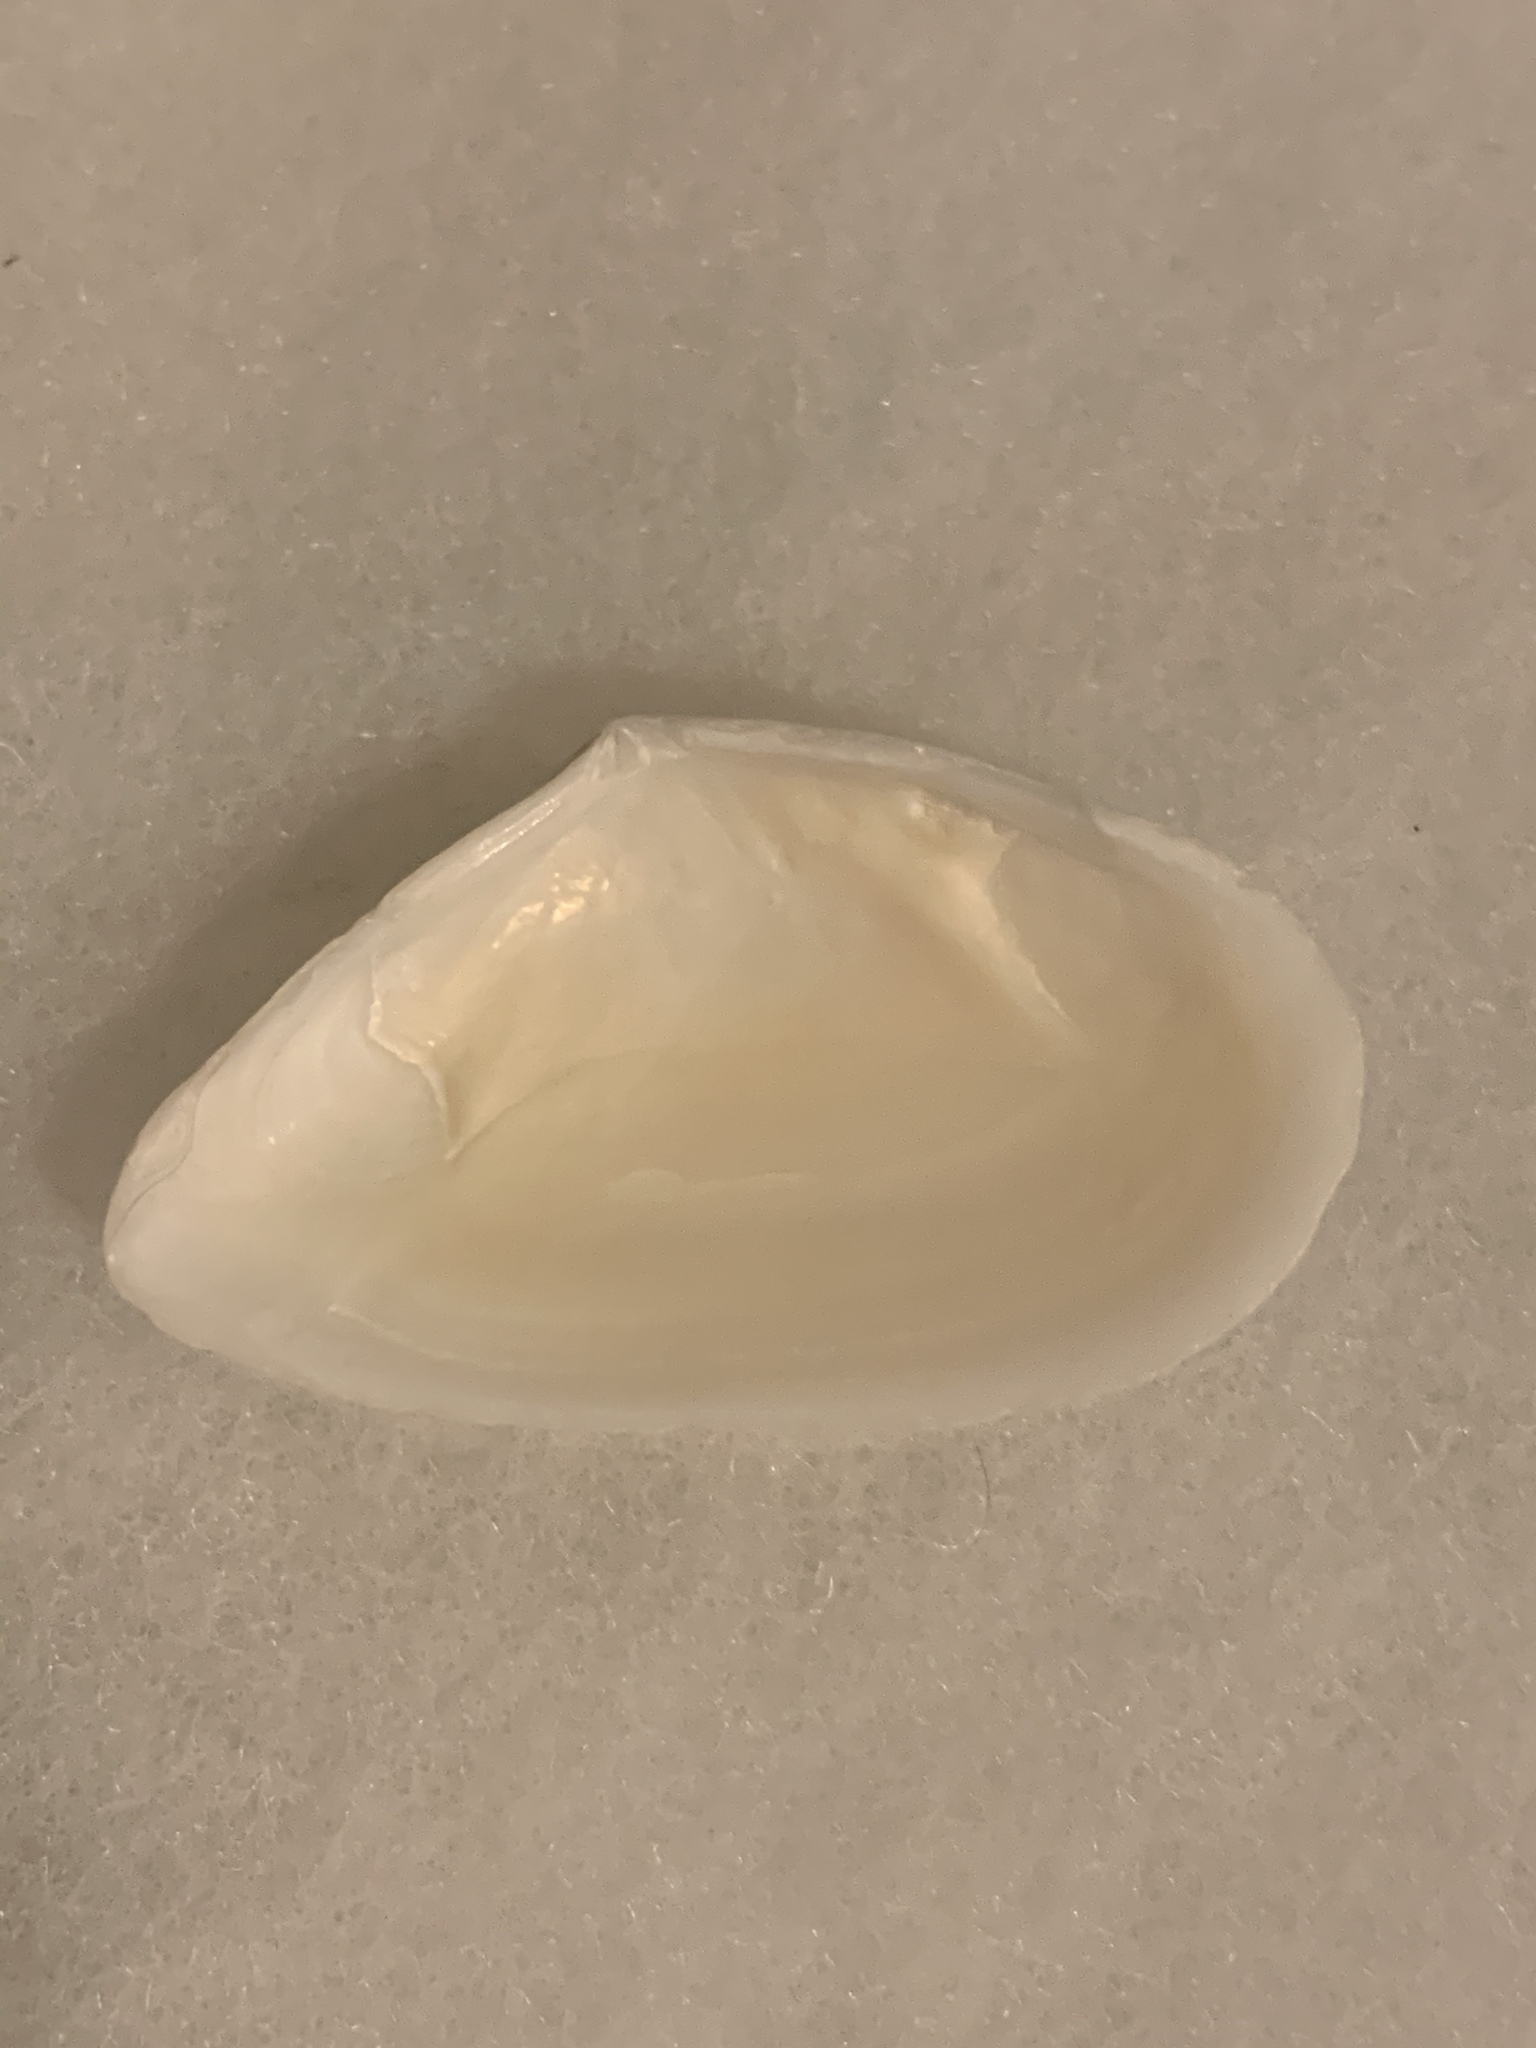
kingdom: Animalia
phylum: Mollusca
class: Bivalvia
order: Cardiida
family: Tellinidae
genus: Eurytellina
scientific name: Eurytellina alternata
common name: Alternate tellin
